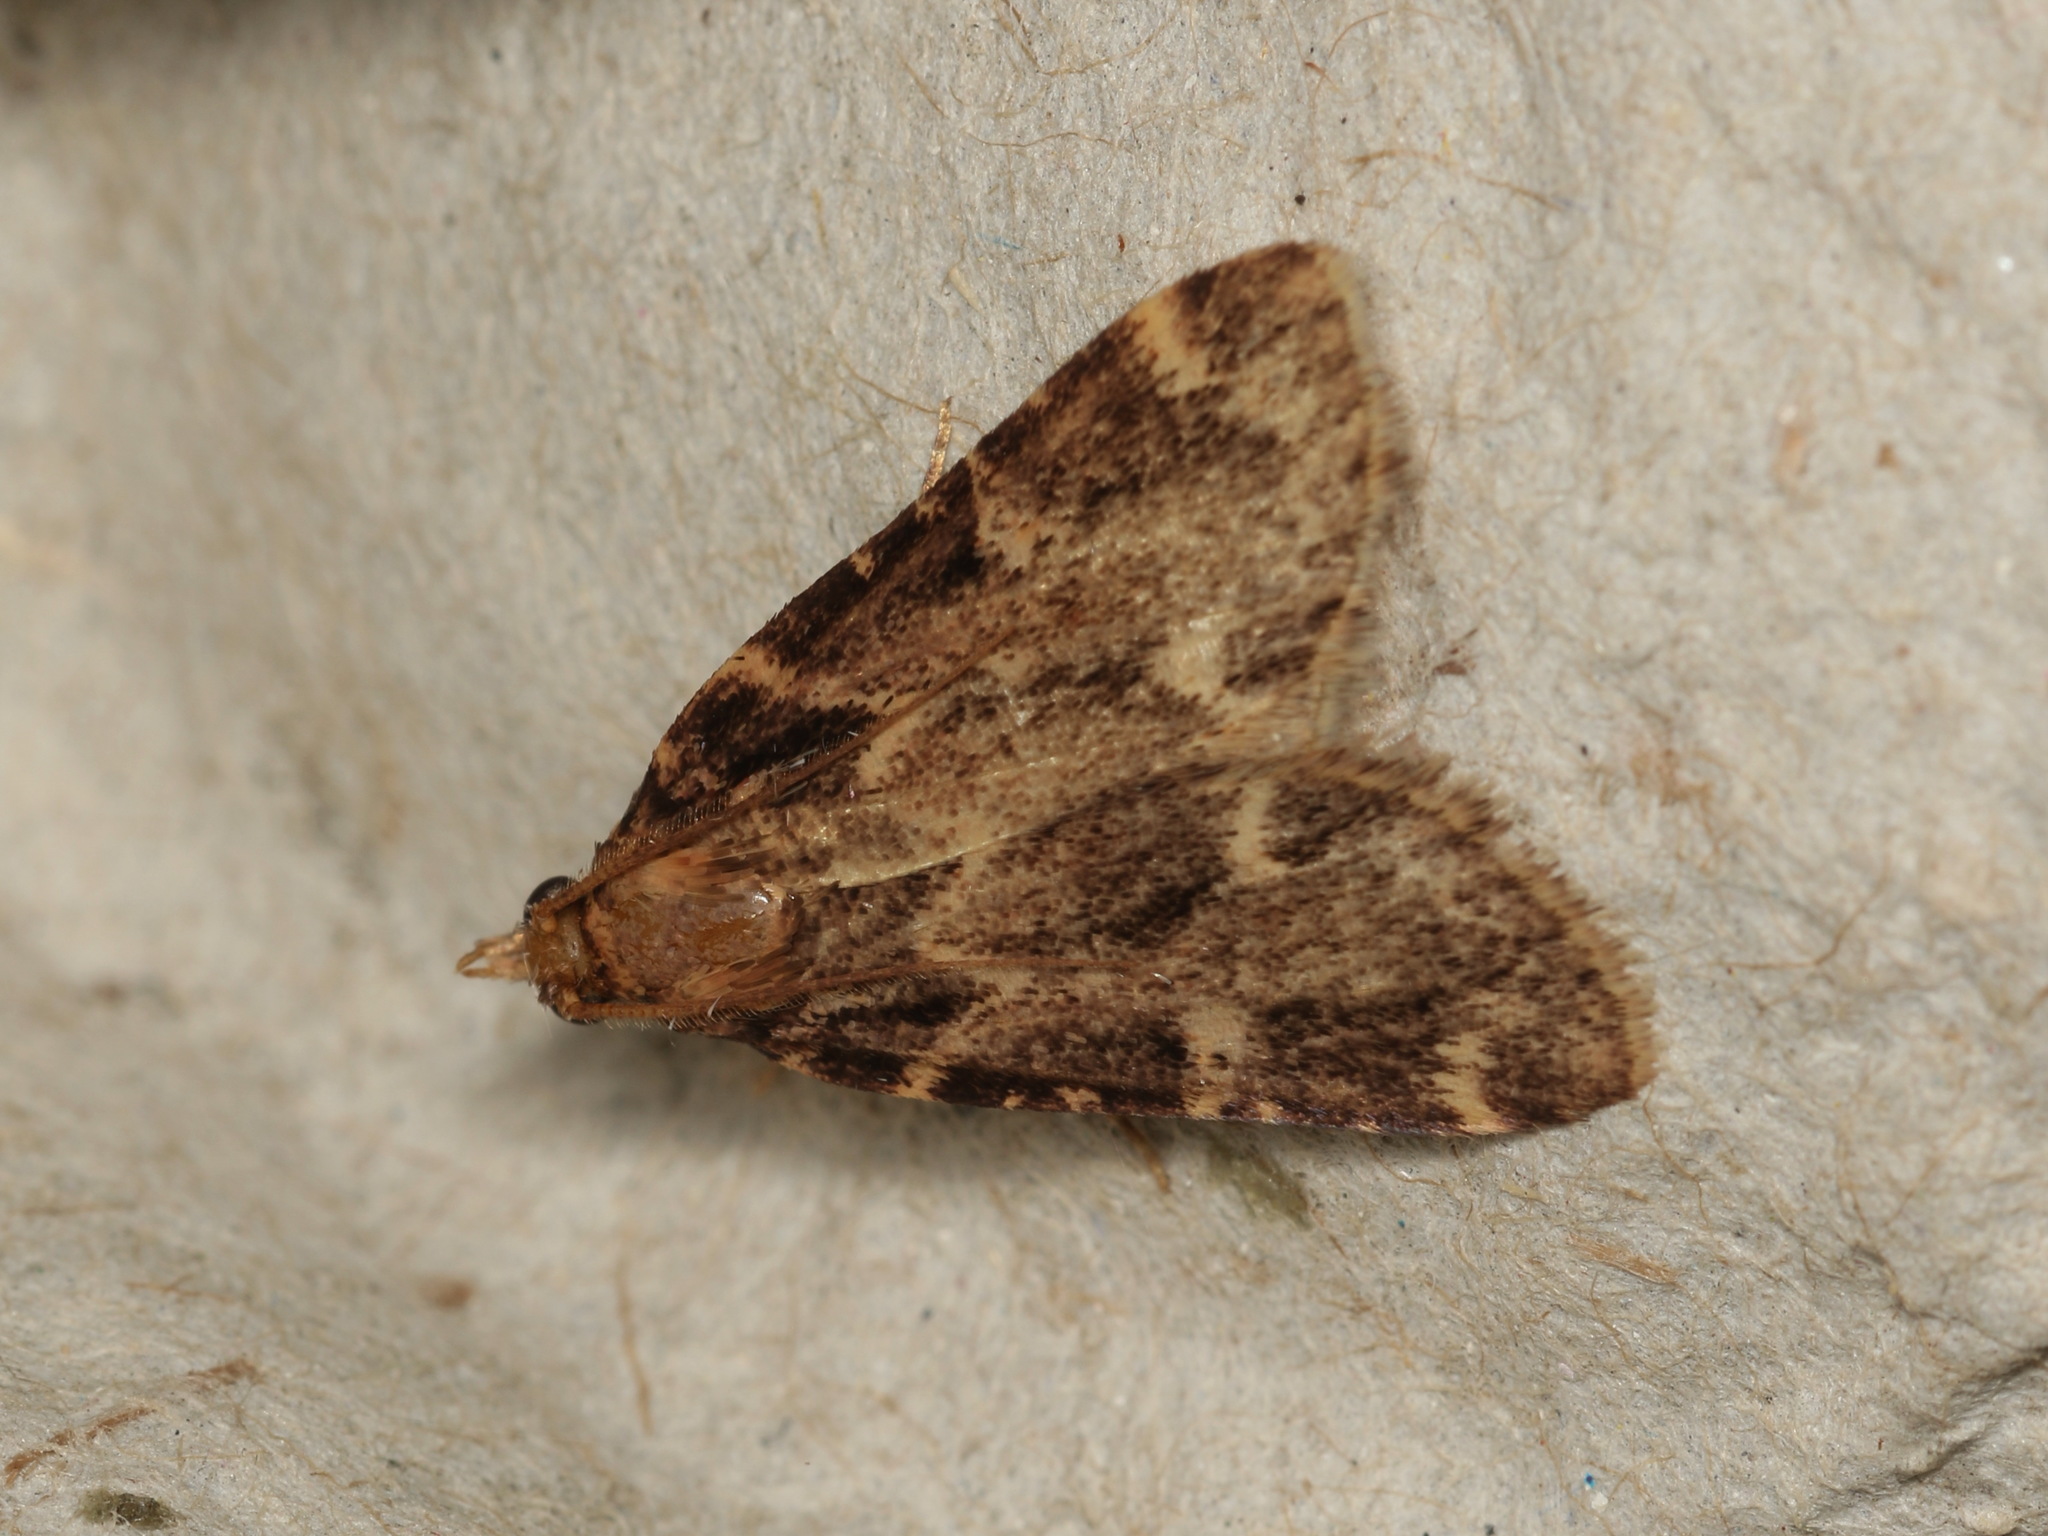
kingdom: Animalia
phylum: Arthropoda
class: Insecta
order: Lepidoptera
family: Pyralidae
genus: Aglossa
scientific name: Aglossa caprealis
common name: Small tabby
